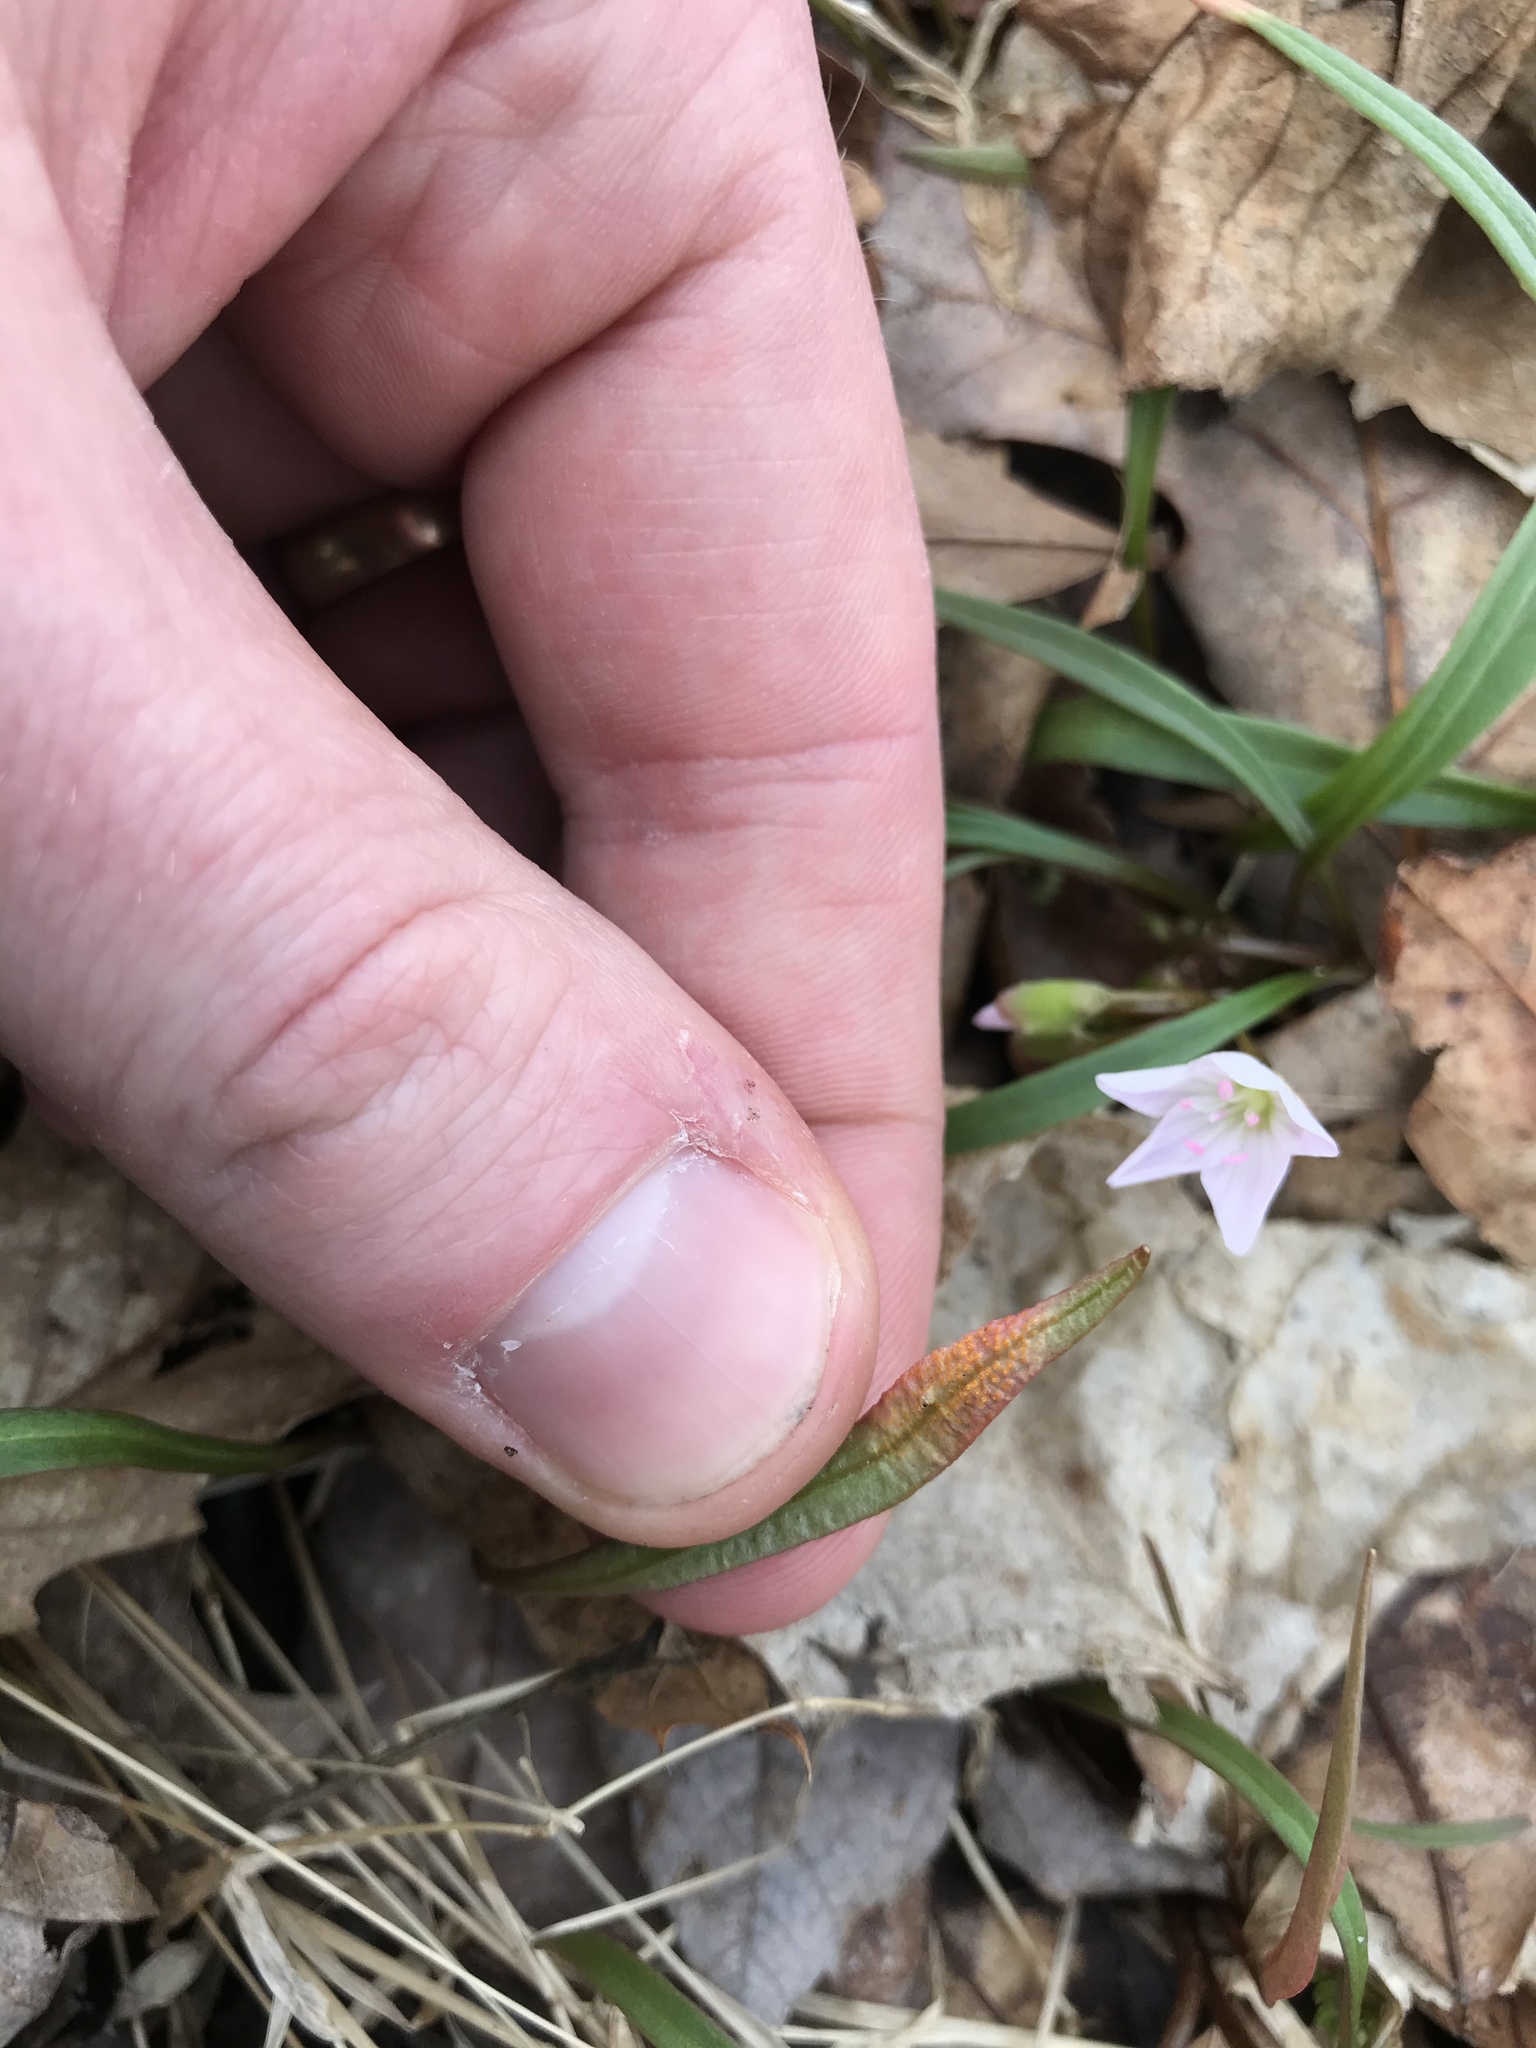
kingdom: Fungi
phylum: Basidiomycota
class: Pucciniomycetes
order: Pucciniales
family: Pucciniaceae
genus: Puccinia
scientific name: Puccinia mariae-wilsoniae
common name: Spring beauty rust
